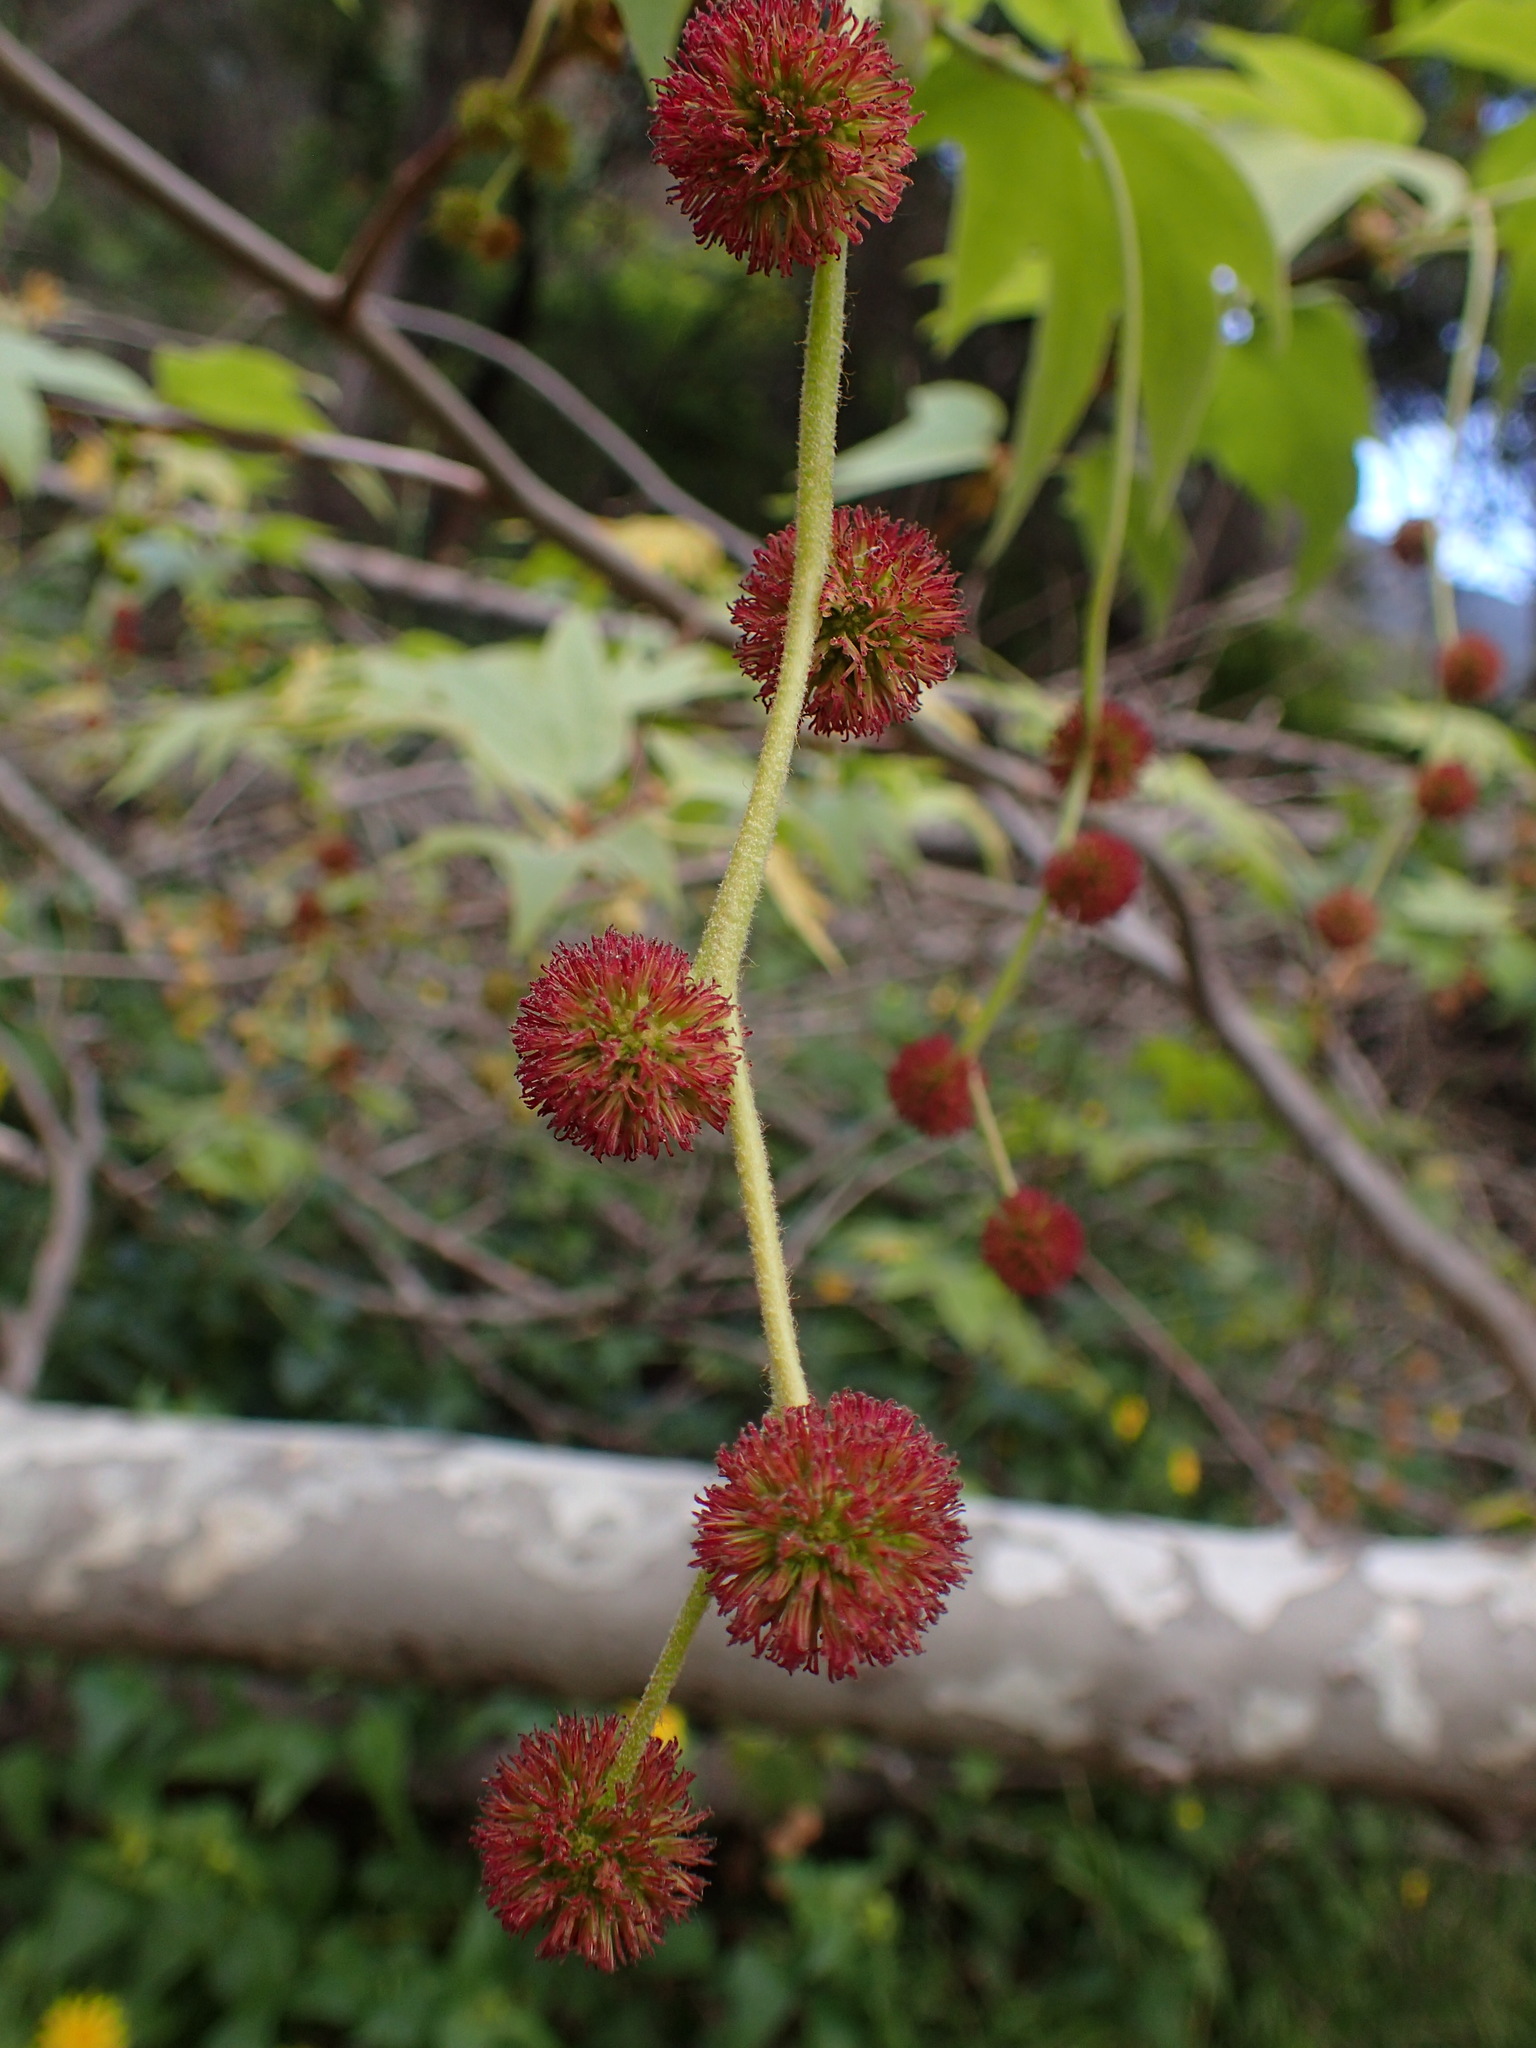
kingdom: Plantae
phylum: Tracheophyta
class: Magnoliopsida
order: Proteales
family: Platanaceae
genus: Platanus
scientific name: Platanus racemosa
